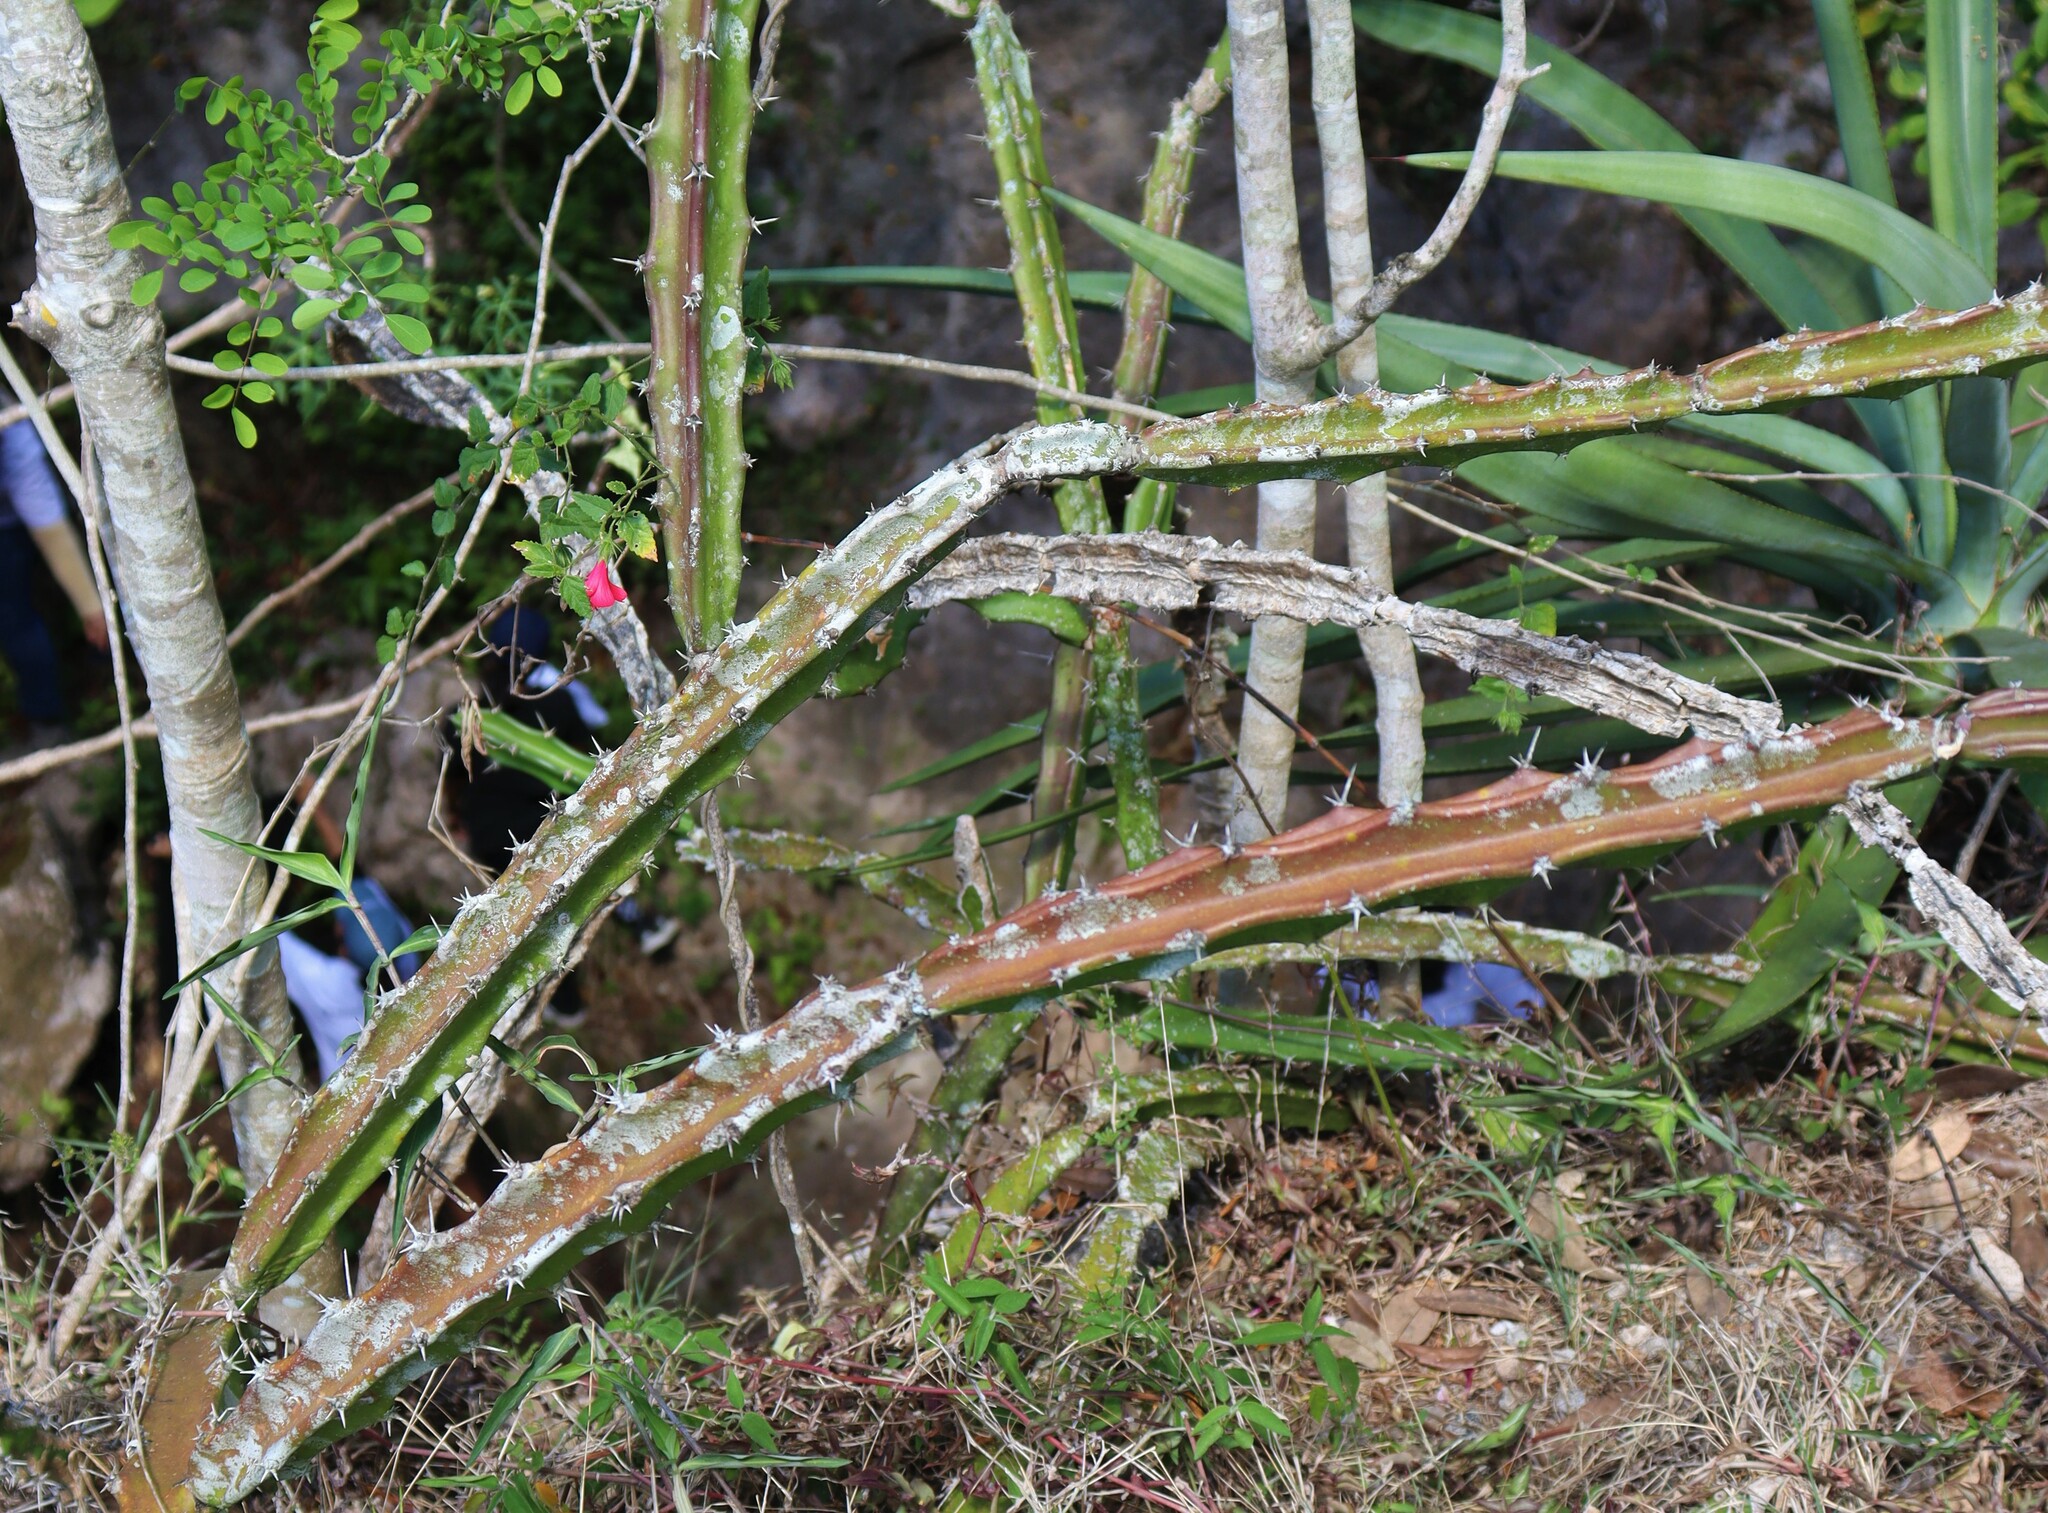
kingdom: Plantae
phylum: Tracheophyta
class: Magnoliopsida
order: Caryophyllales
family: Cactaceae
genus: Acanthocereus
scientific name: Acanthocereus tetragonus
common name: Triangle cactus
